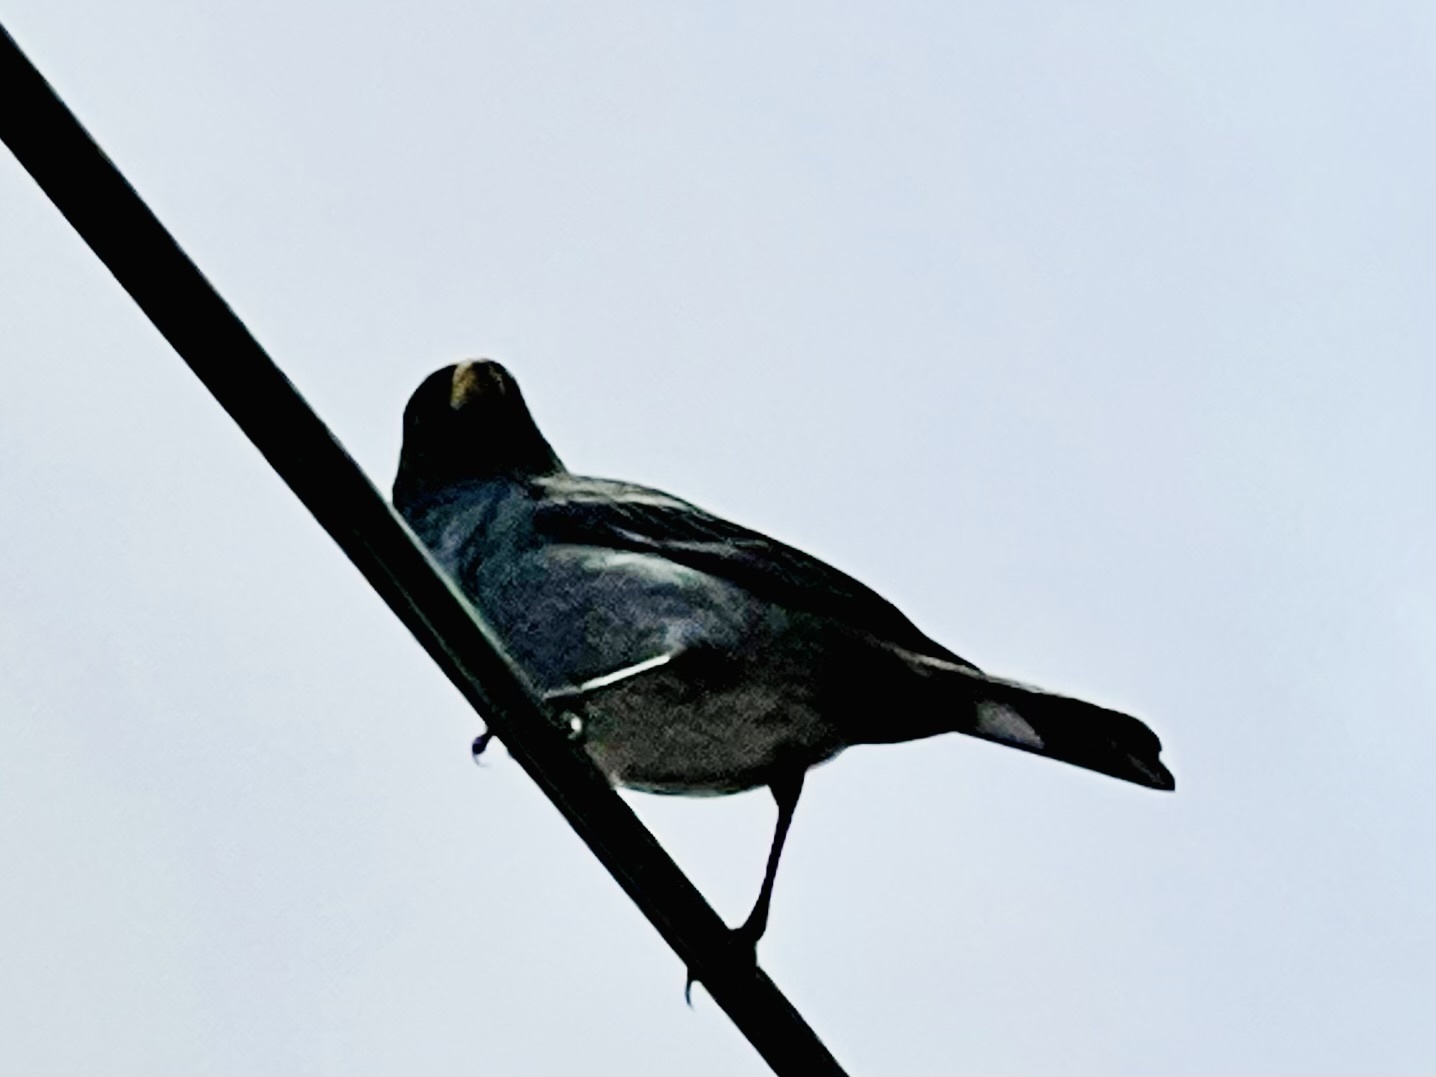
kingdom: Animalia
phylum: Chordata
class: Aves
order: Passeriformes
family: Thraupidae
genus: Catamenia
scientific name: Catamenia analis
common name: Band-tailed seedeater
